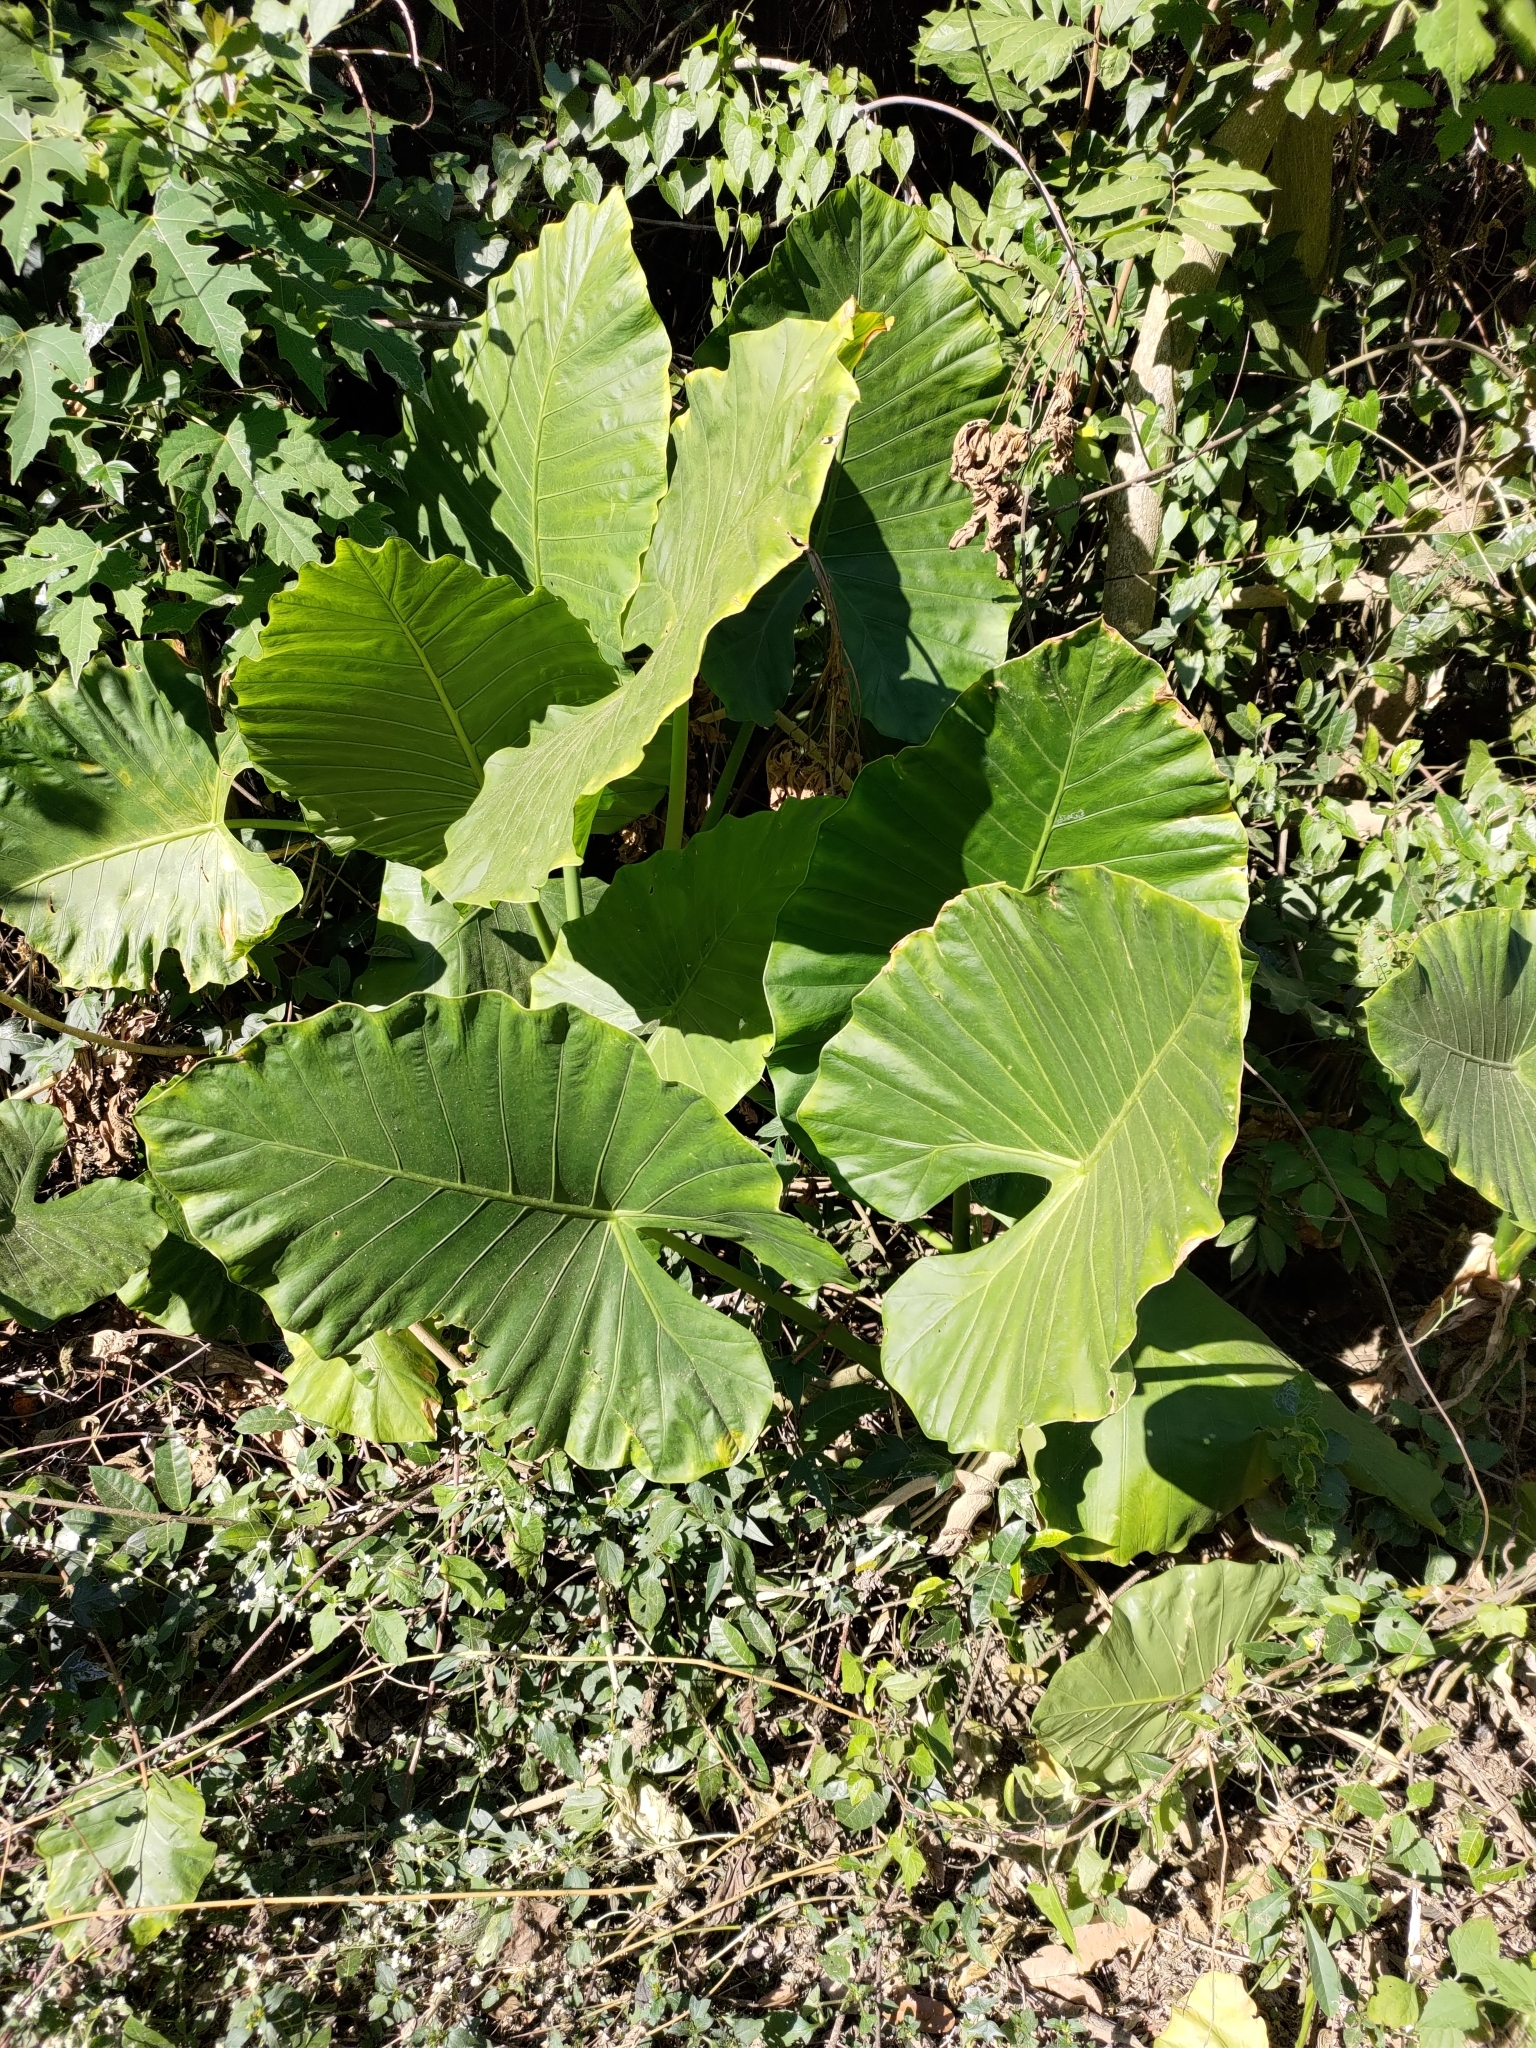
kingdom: Plantae
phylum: Tracheophyta
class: Liliopsida
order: Alismatales
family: Araceae
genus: Alocasia
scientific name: Alocasia odora
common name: Asian taro
